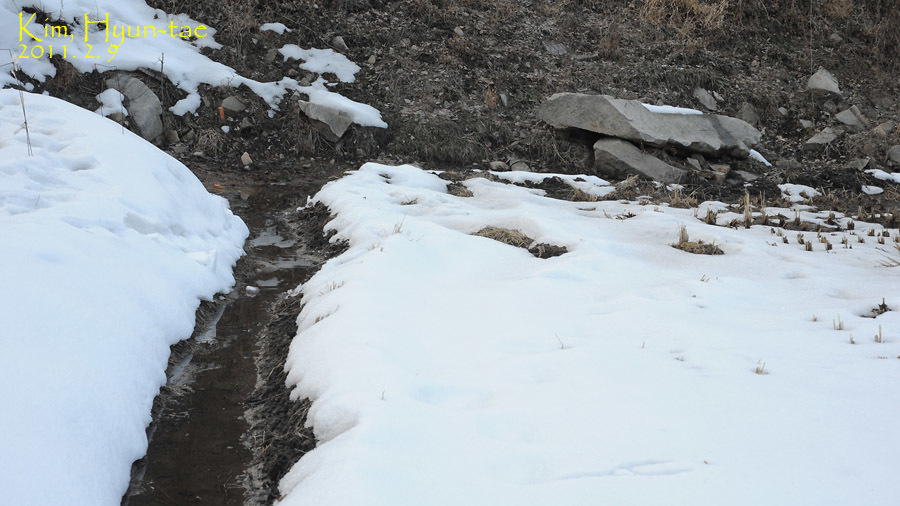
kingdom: Animalia
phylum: Chordata
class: Amphibia
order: Anura
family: Ranidae
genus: Rana
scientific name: Rana uenoi
